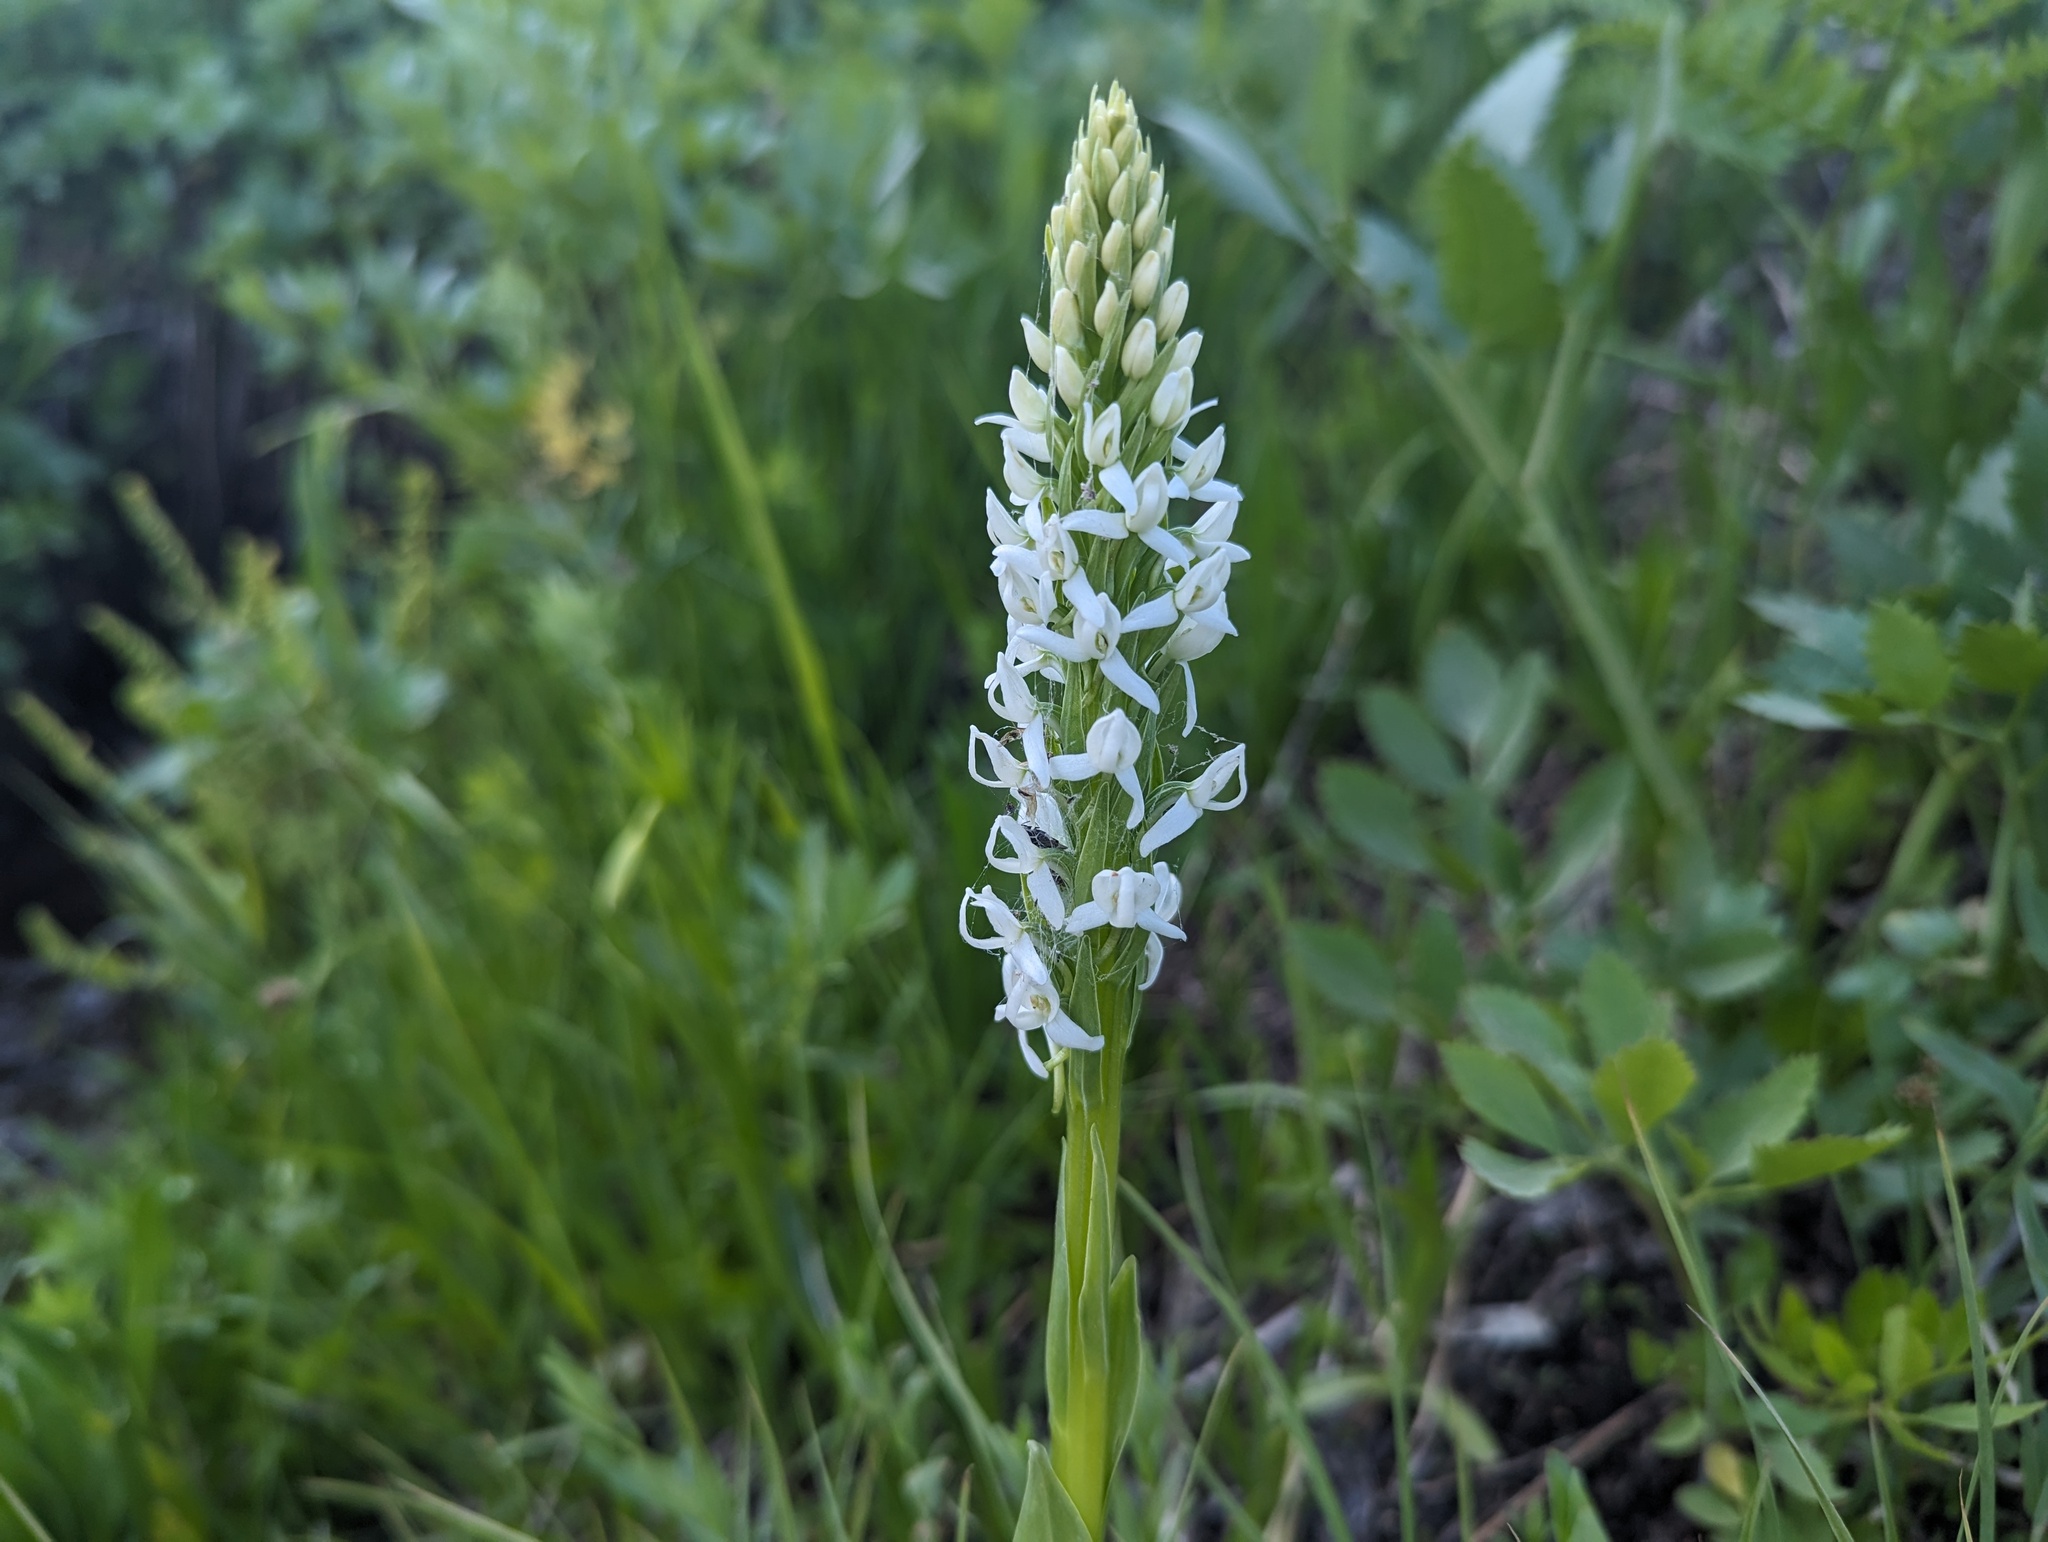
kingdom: Plantae
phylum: Tracheophyta
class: Liliopsida
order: Asparagales
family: Orchidaceae
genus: Platanthera
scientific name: Platanthera dilatata
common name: Bog candles
